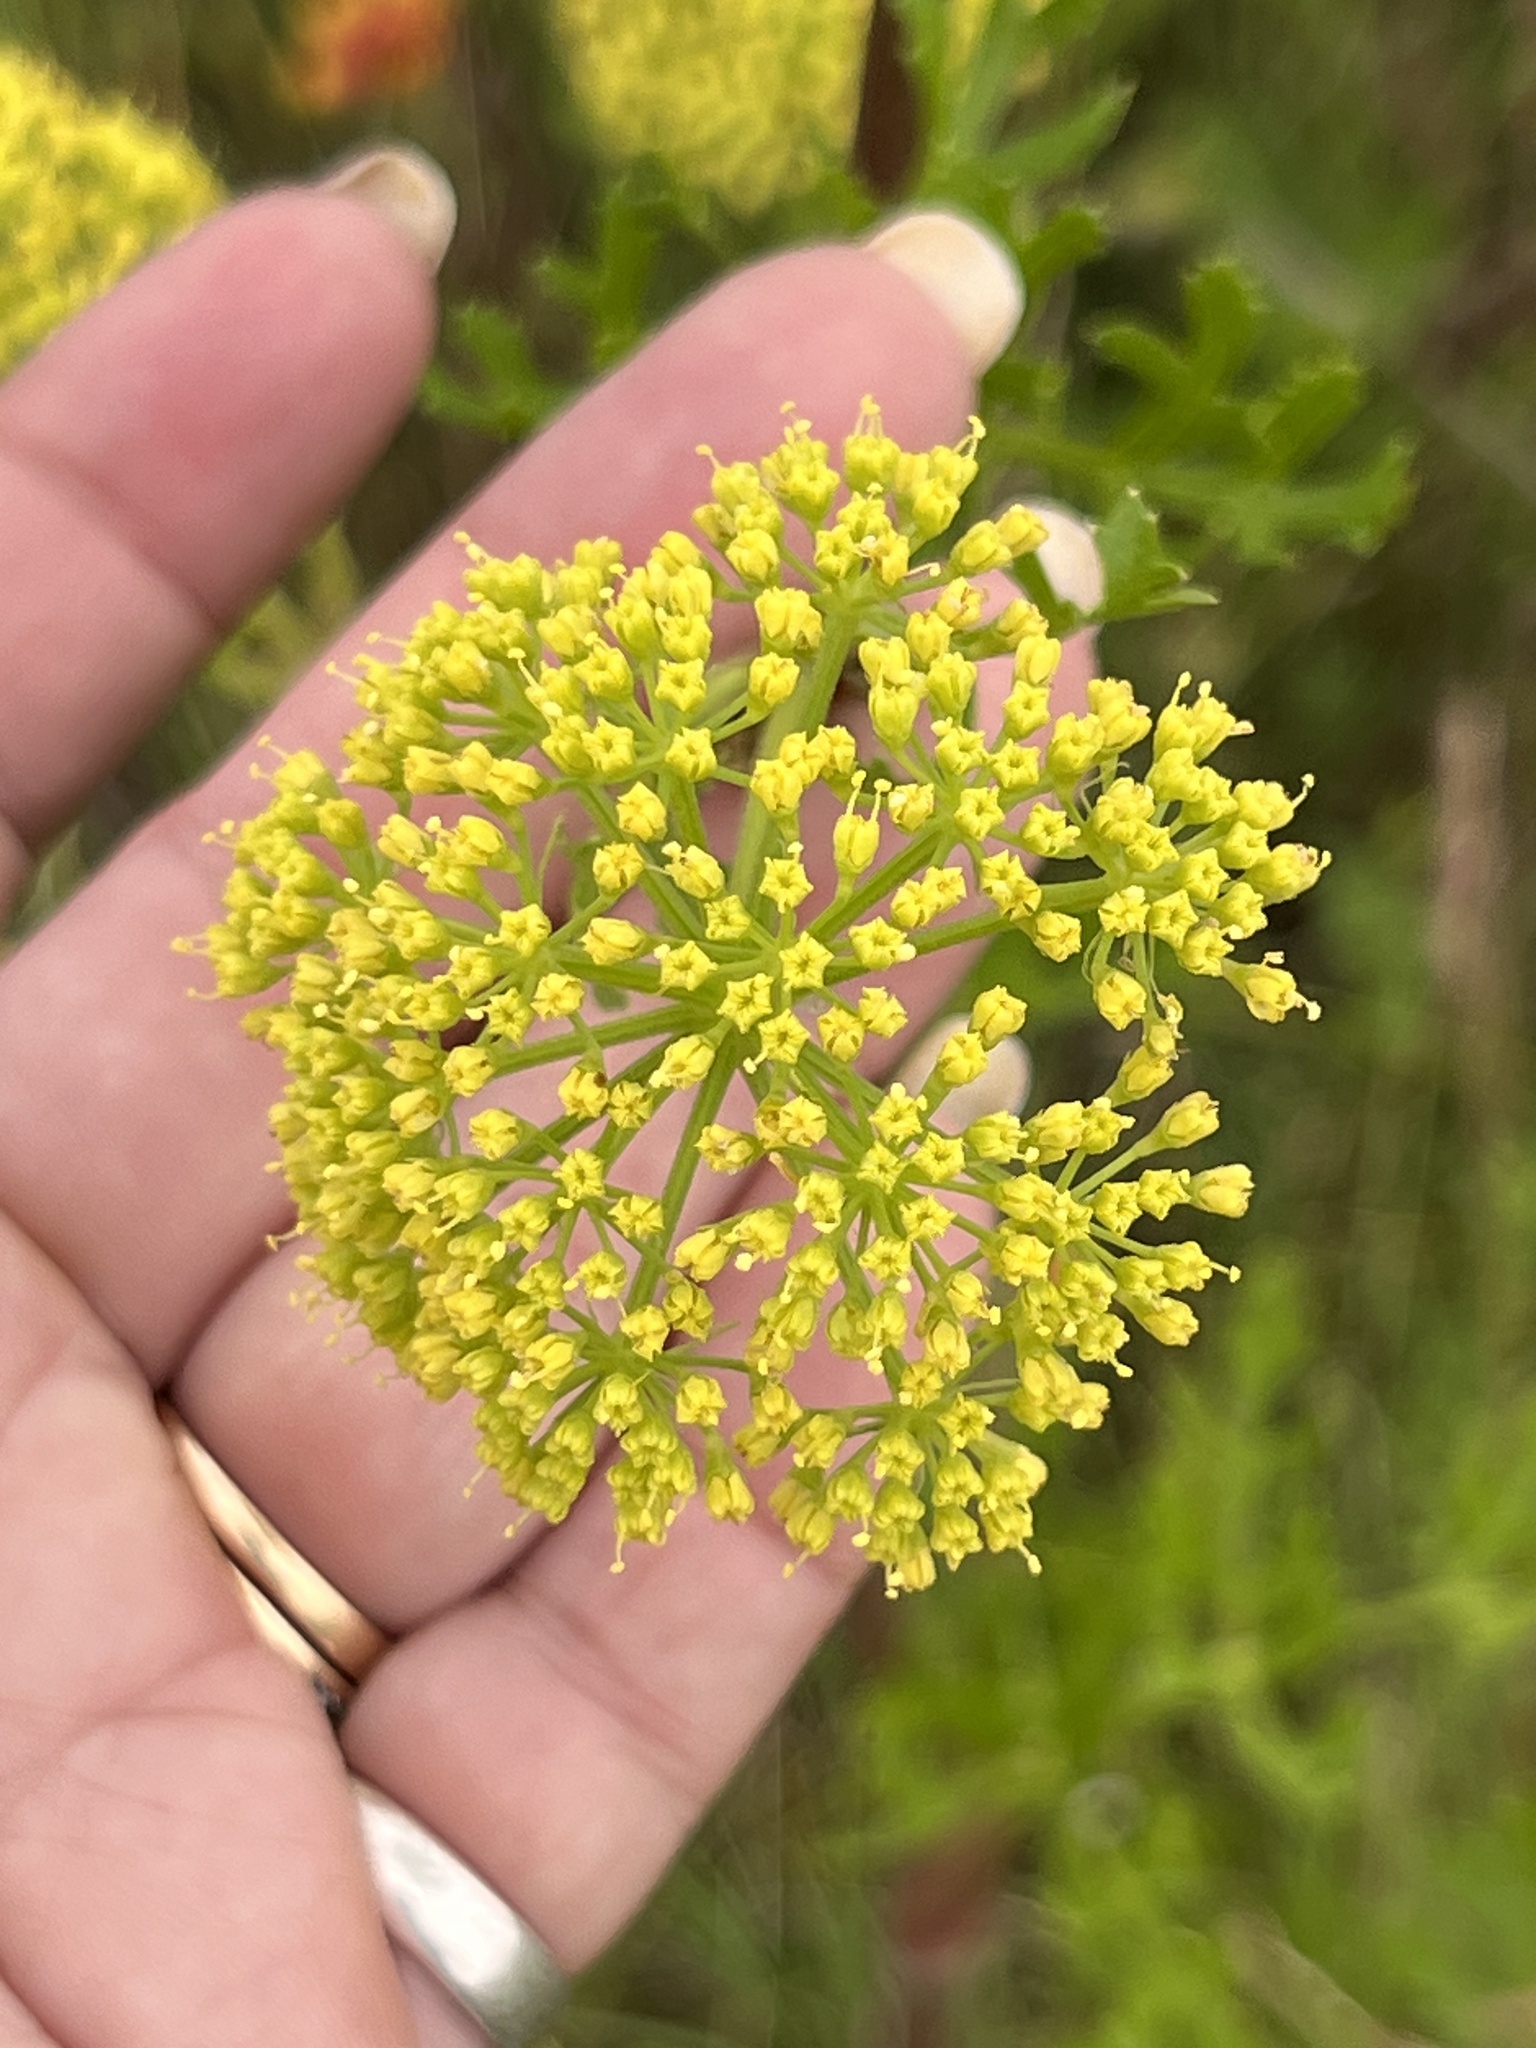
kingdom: Plantae
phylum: Tracheophyta
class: Magnoliopsida
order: Apiales
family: Apiaceae
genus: Polytaenia
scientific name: Polytaenia texana
